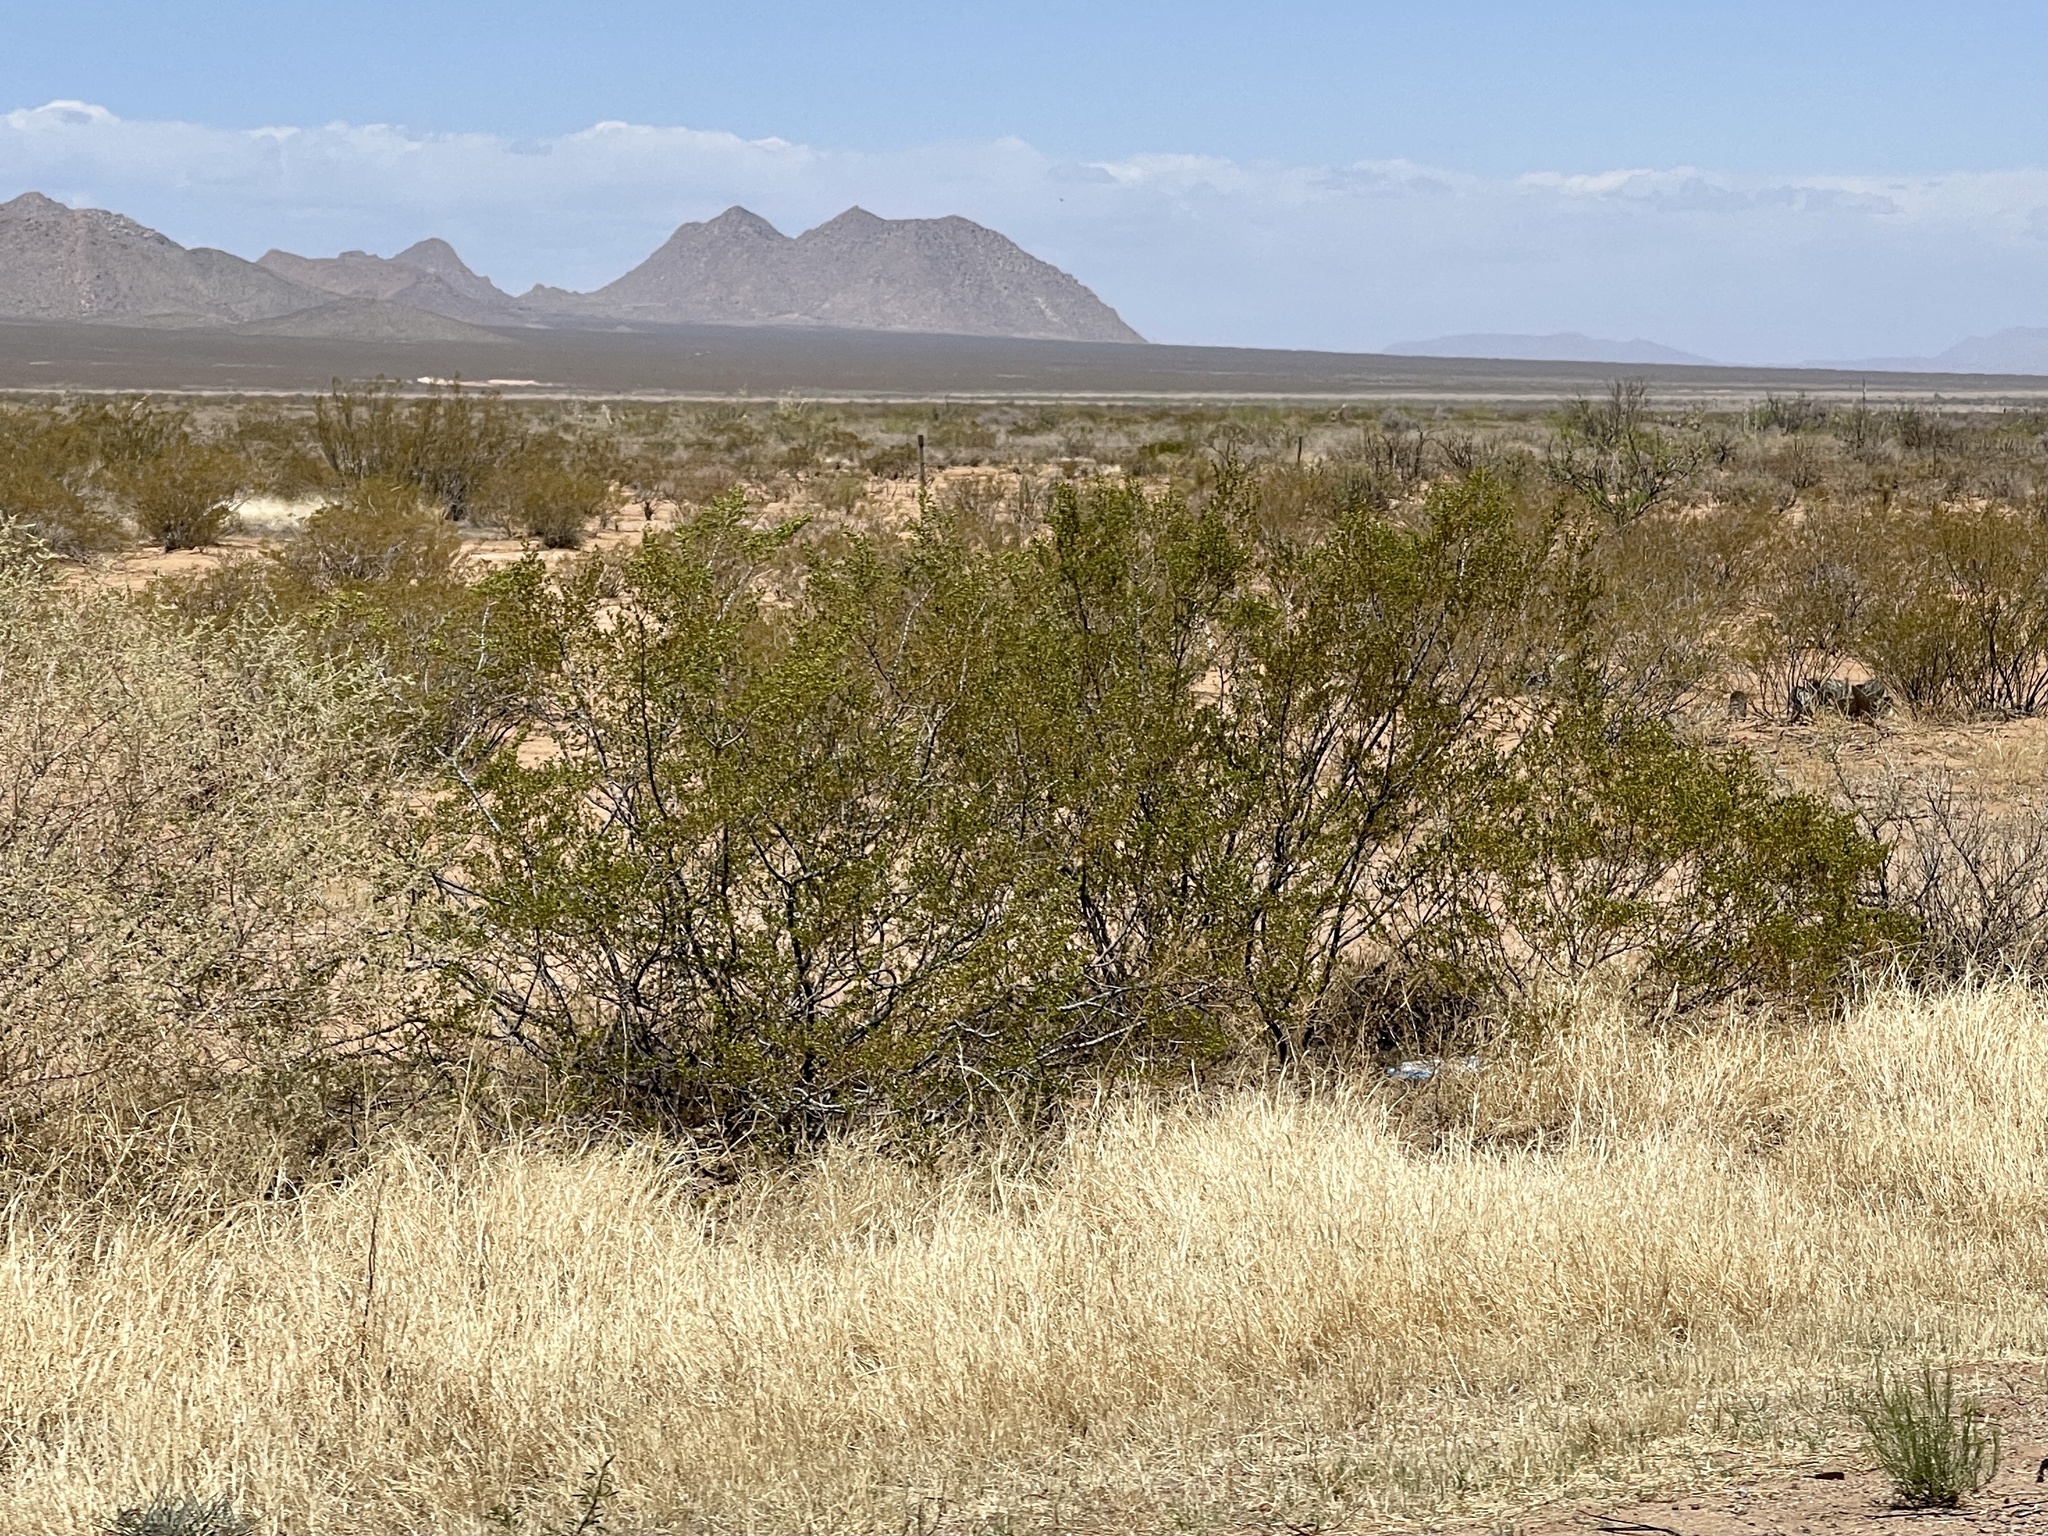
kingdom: Plantae
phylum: Tracheophyta
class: Magnoliopsida
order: Zygophyllales
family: Zygophyllaceae
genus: Larrea
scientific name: Larrea tridentata
